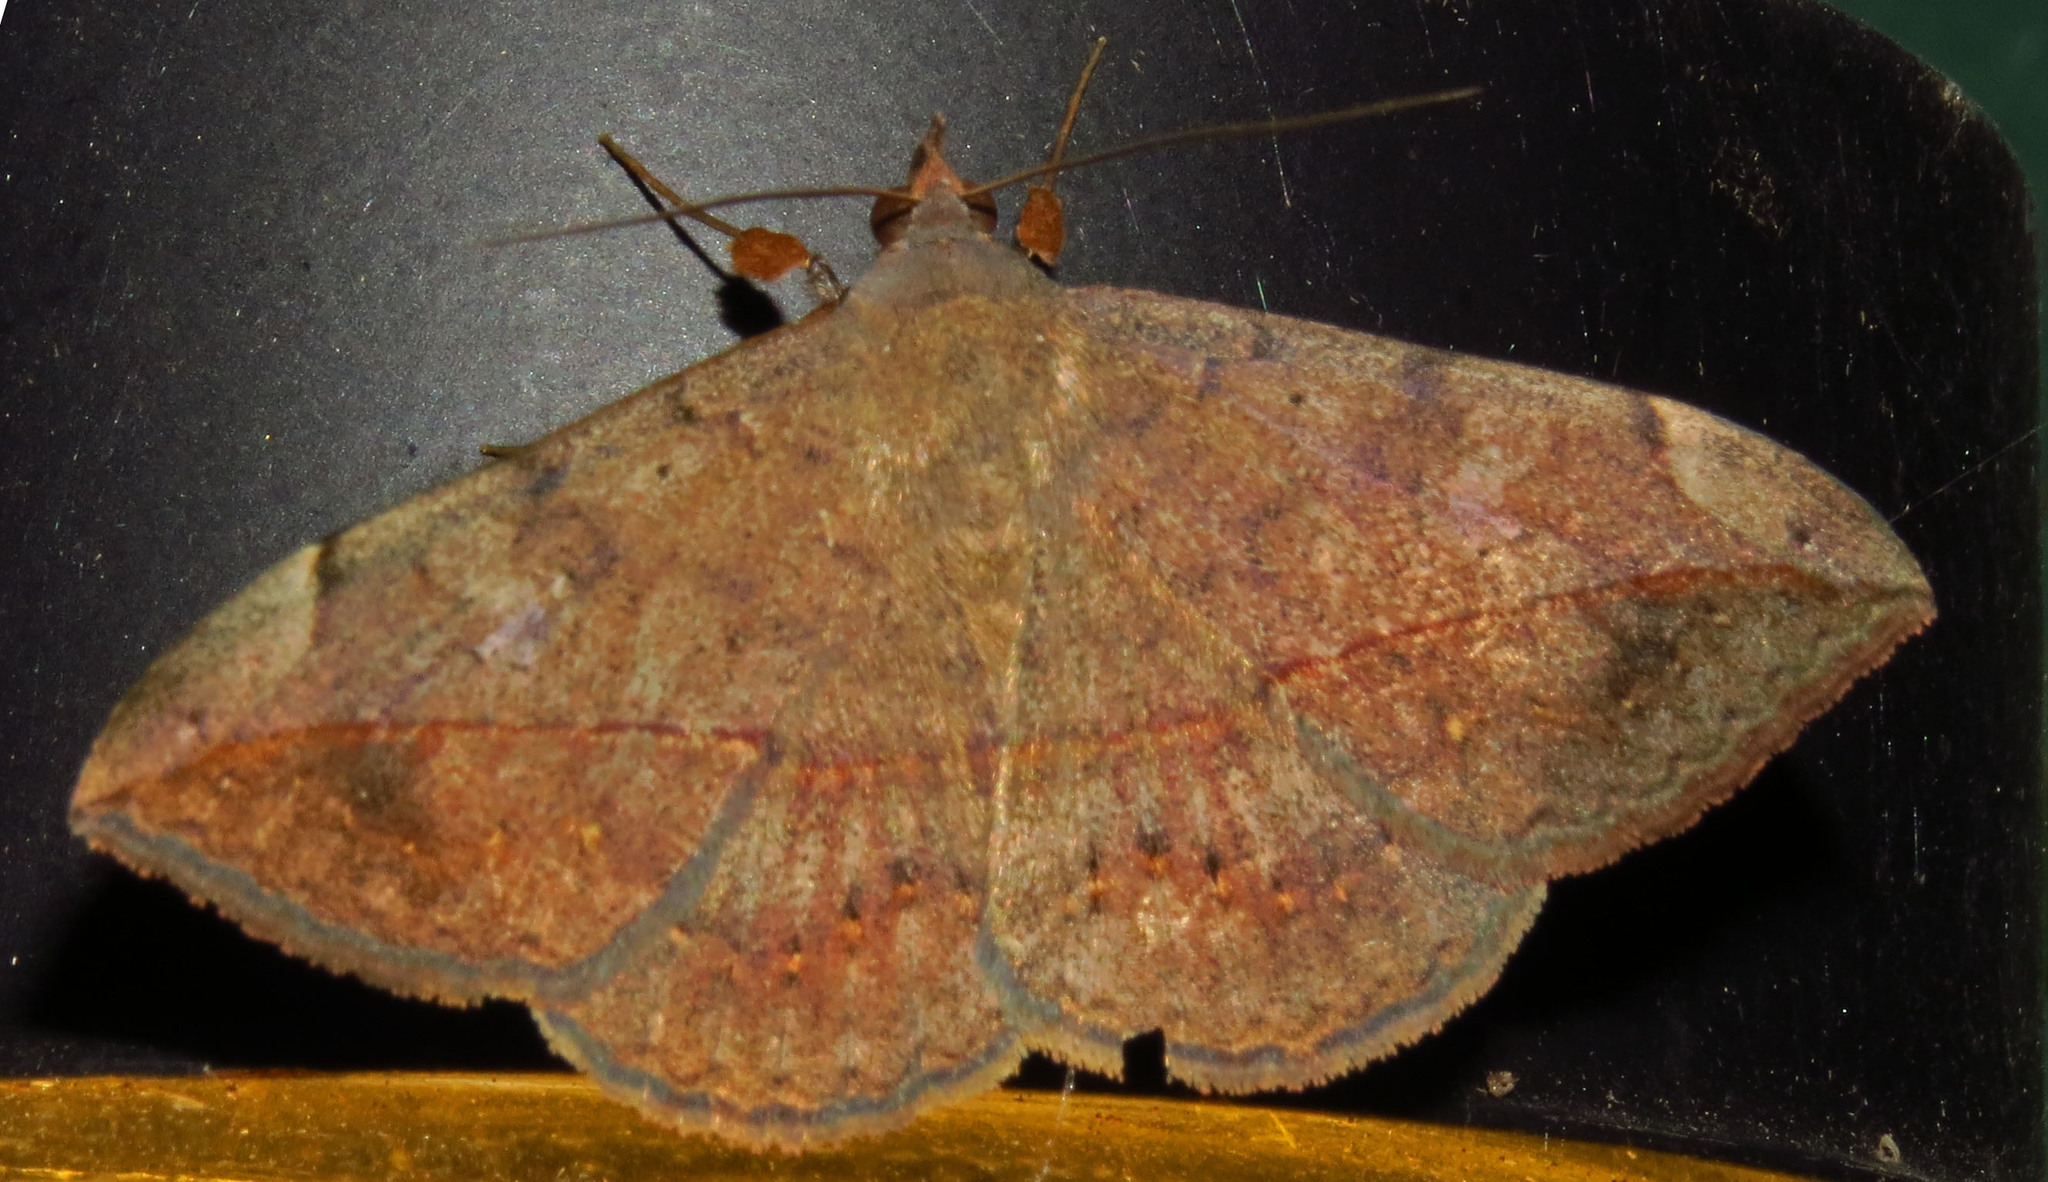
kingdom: Animalia
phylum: Arthropoda
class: Insecta
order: Lepidoptera
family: Erebidae
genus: Anticarsia
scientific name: Anticarsia gemmatalis
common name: Cutworm moth
